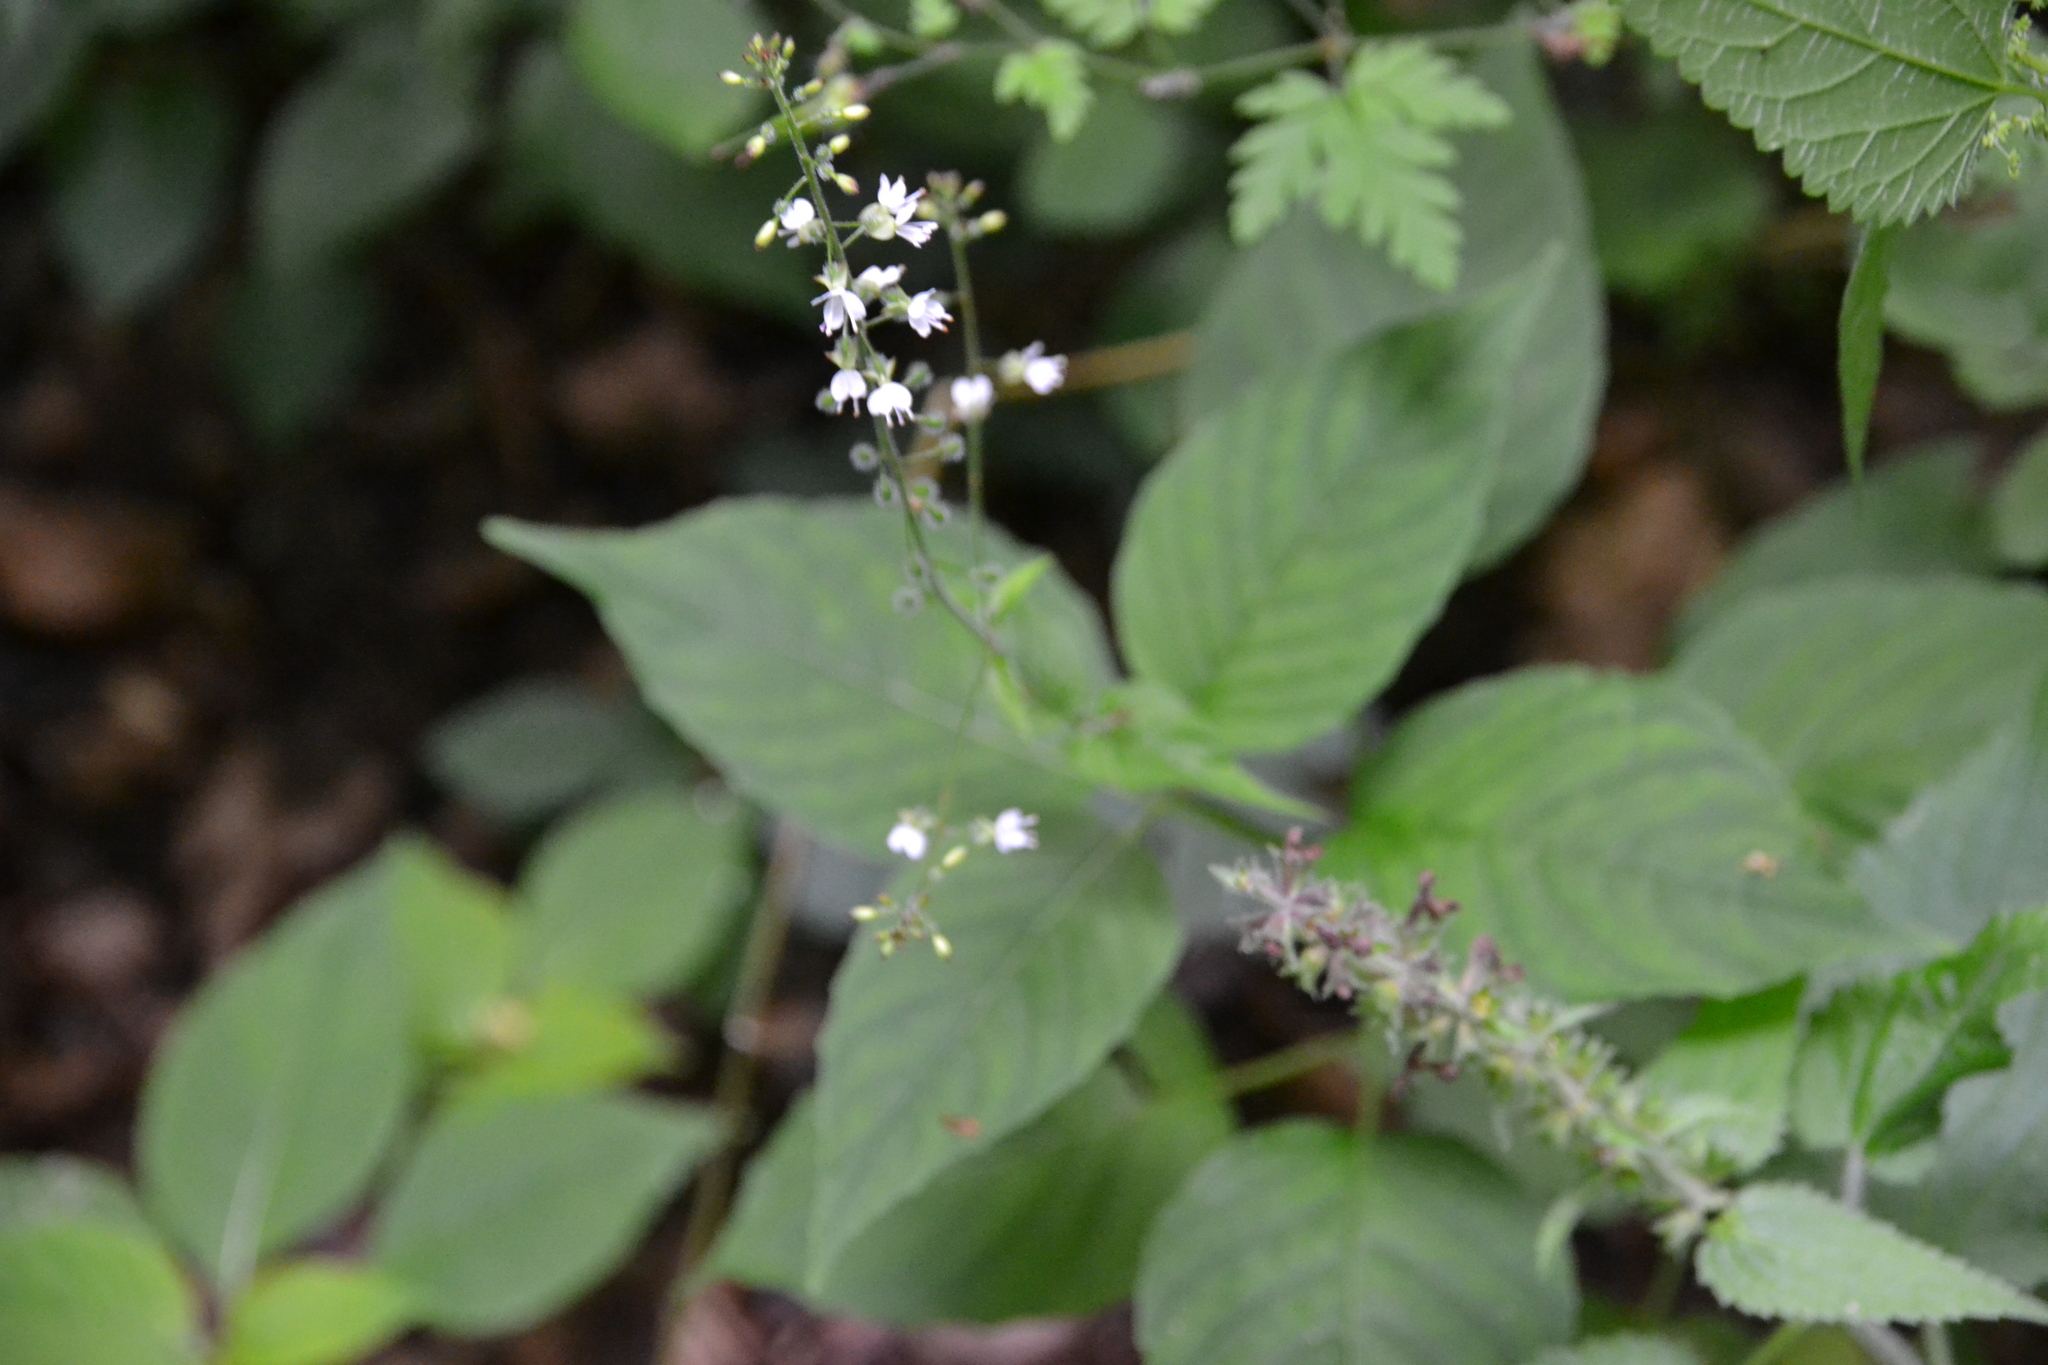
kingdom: Plantae
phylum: Tracheophyta
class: Magnoliopsida
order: Myrtales
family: Onagraceae
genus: Circaea
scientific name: Circaea lutetiana
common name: Enchanter's-nightshade
